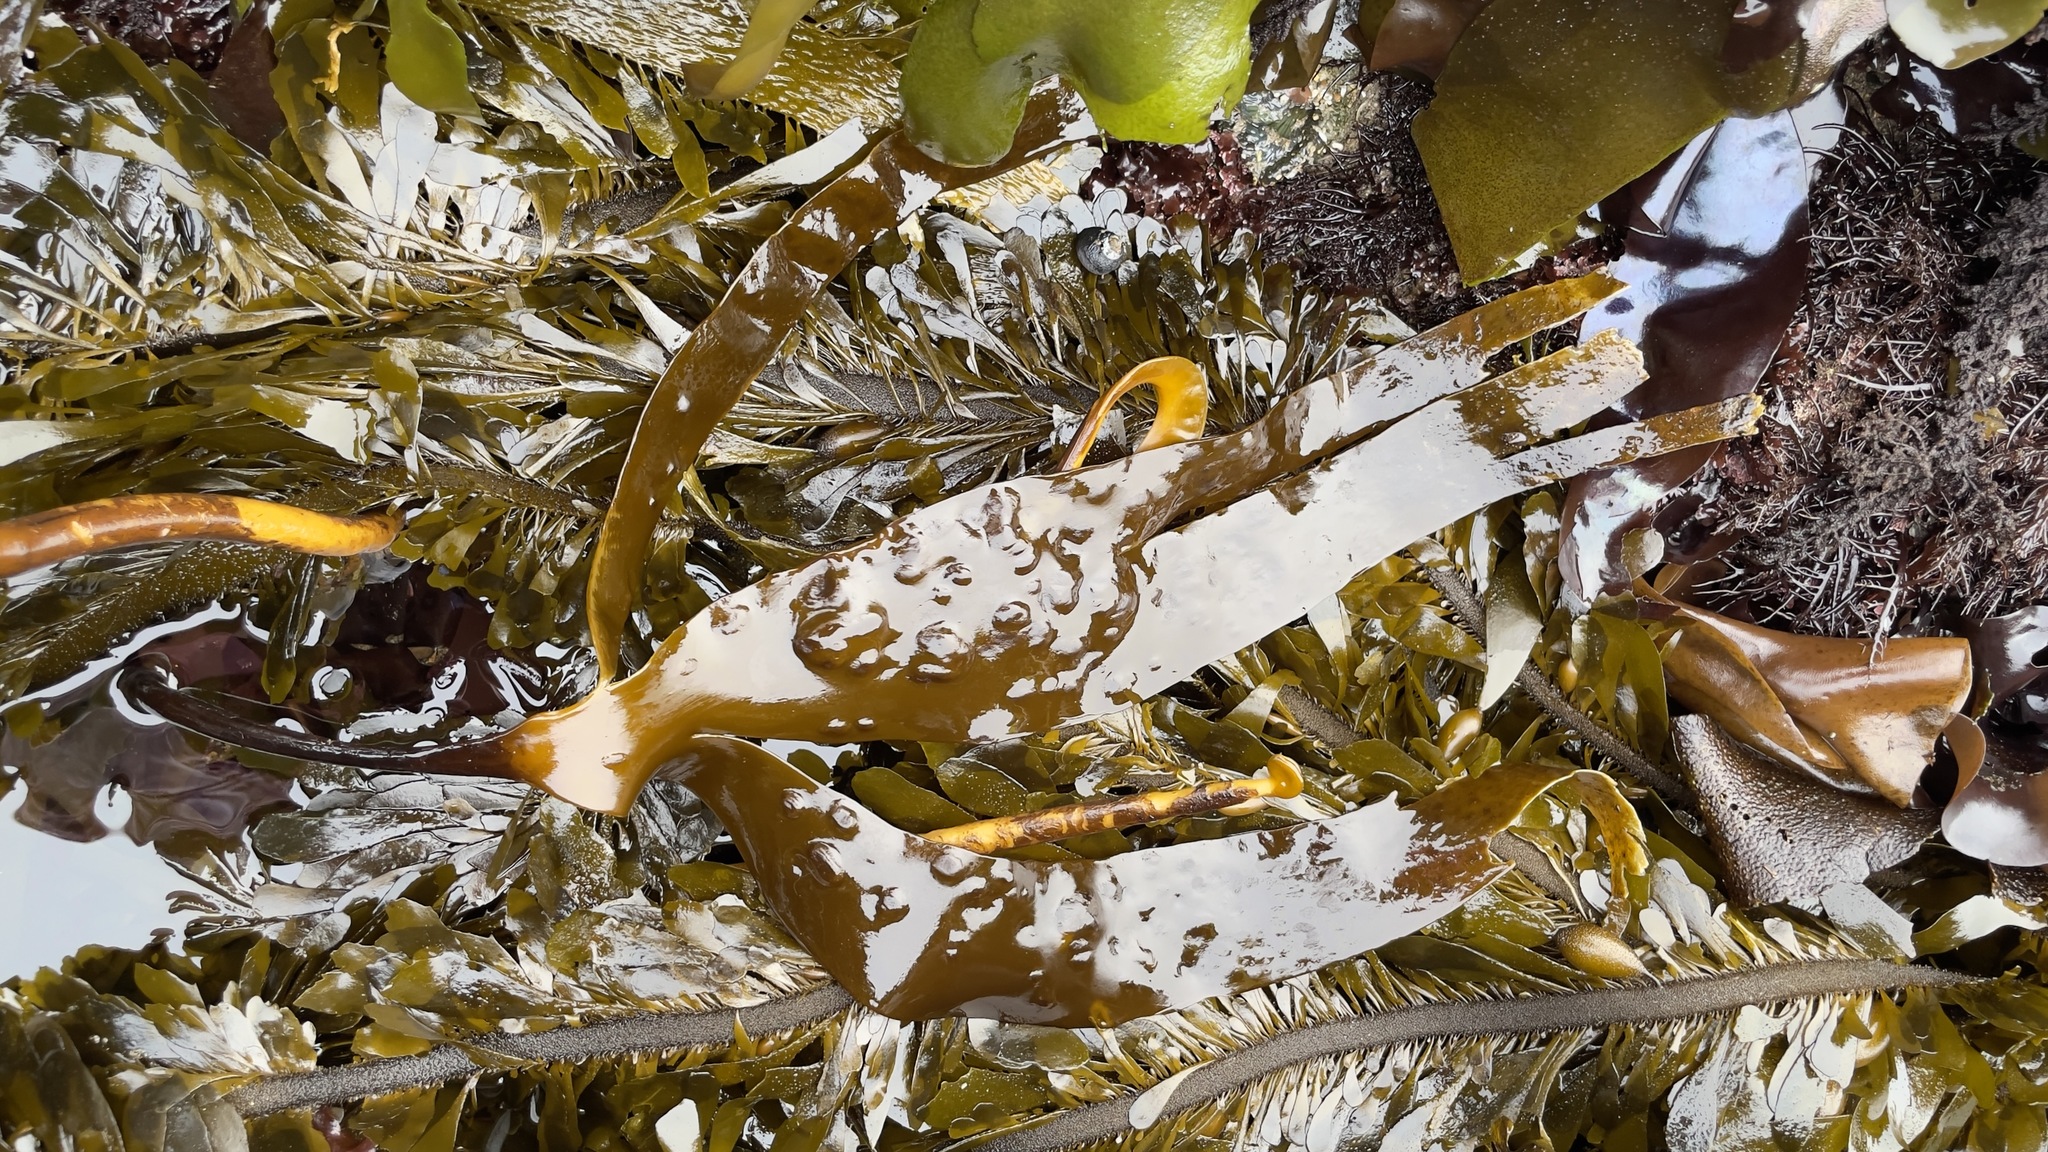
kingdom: Chromista
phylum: Ochrophyta
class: Phaeophyceae
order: Laminariales
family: Laminariaceae
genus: Laminaria
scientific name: Laminaria setchellii
